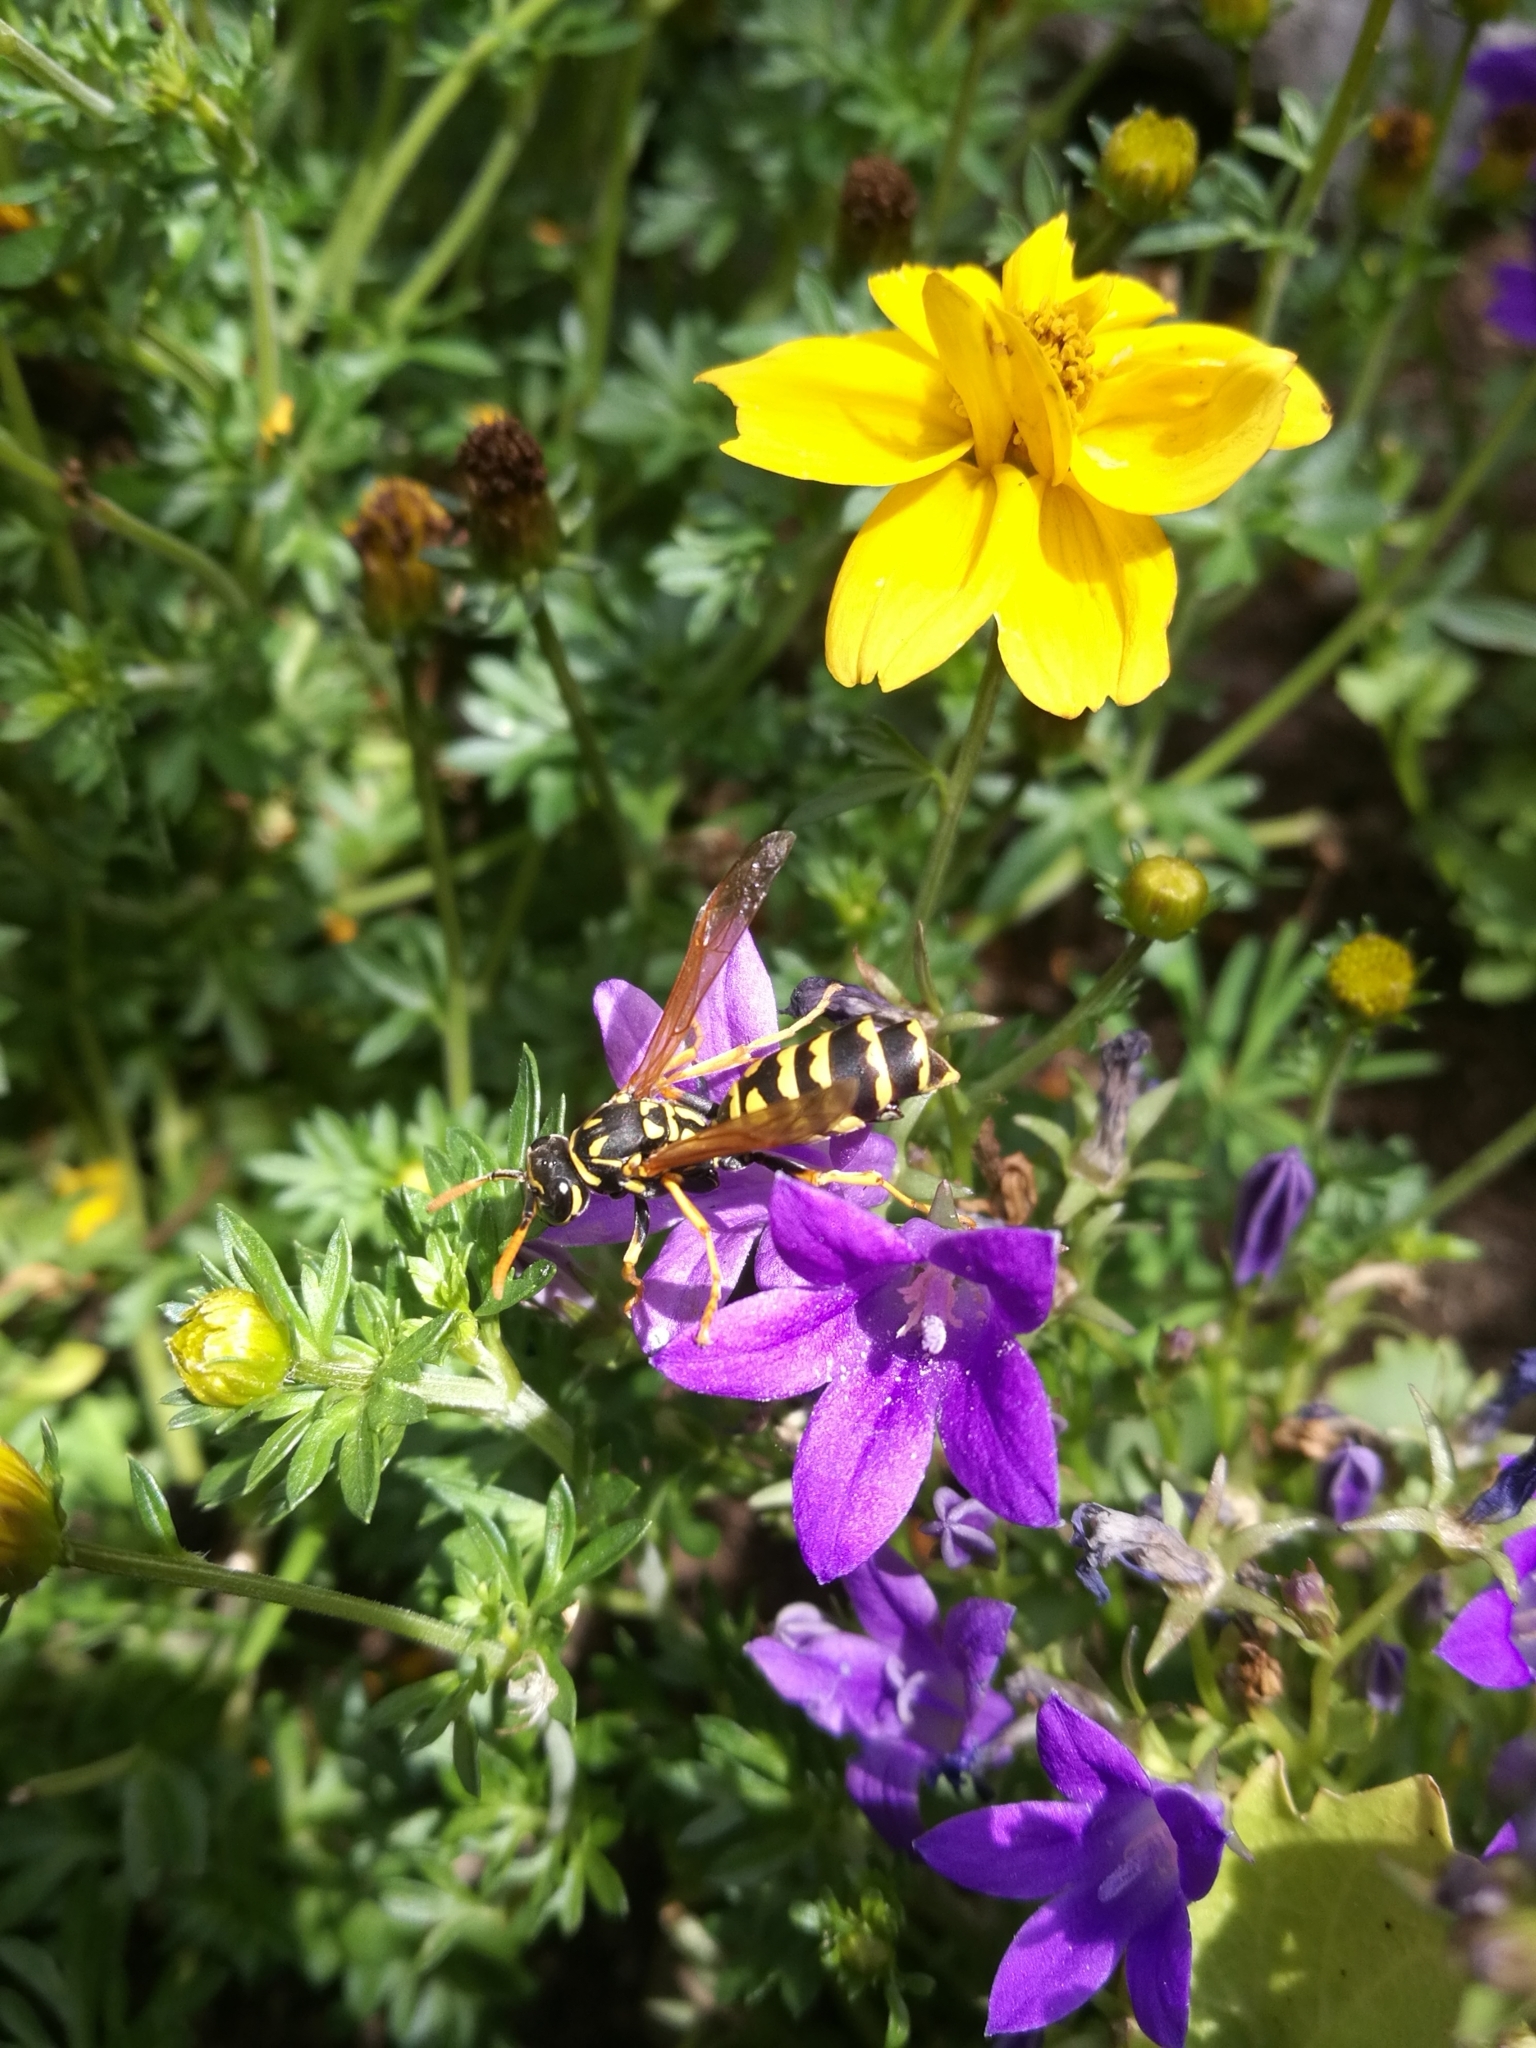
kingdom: Animalia
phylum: Arthropoda
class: Insecta
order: Strepsiptera
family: Xenidae
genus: Xenos
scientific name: Xenos vesparum
